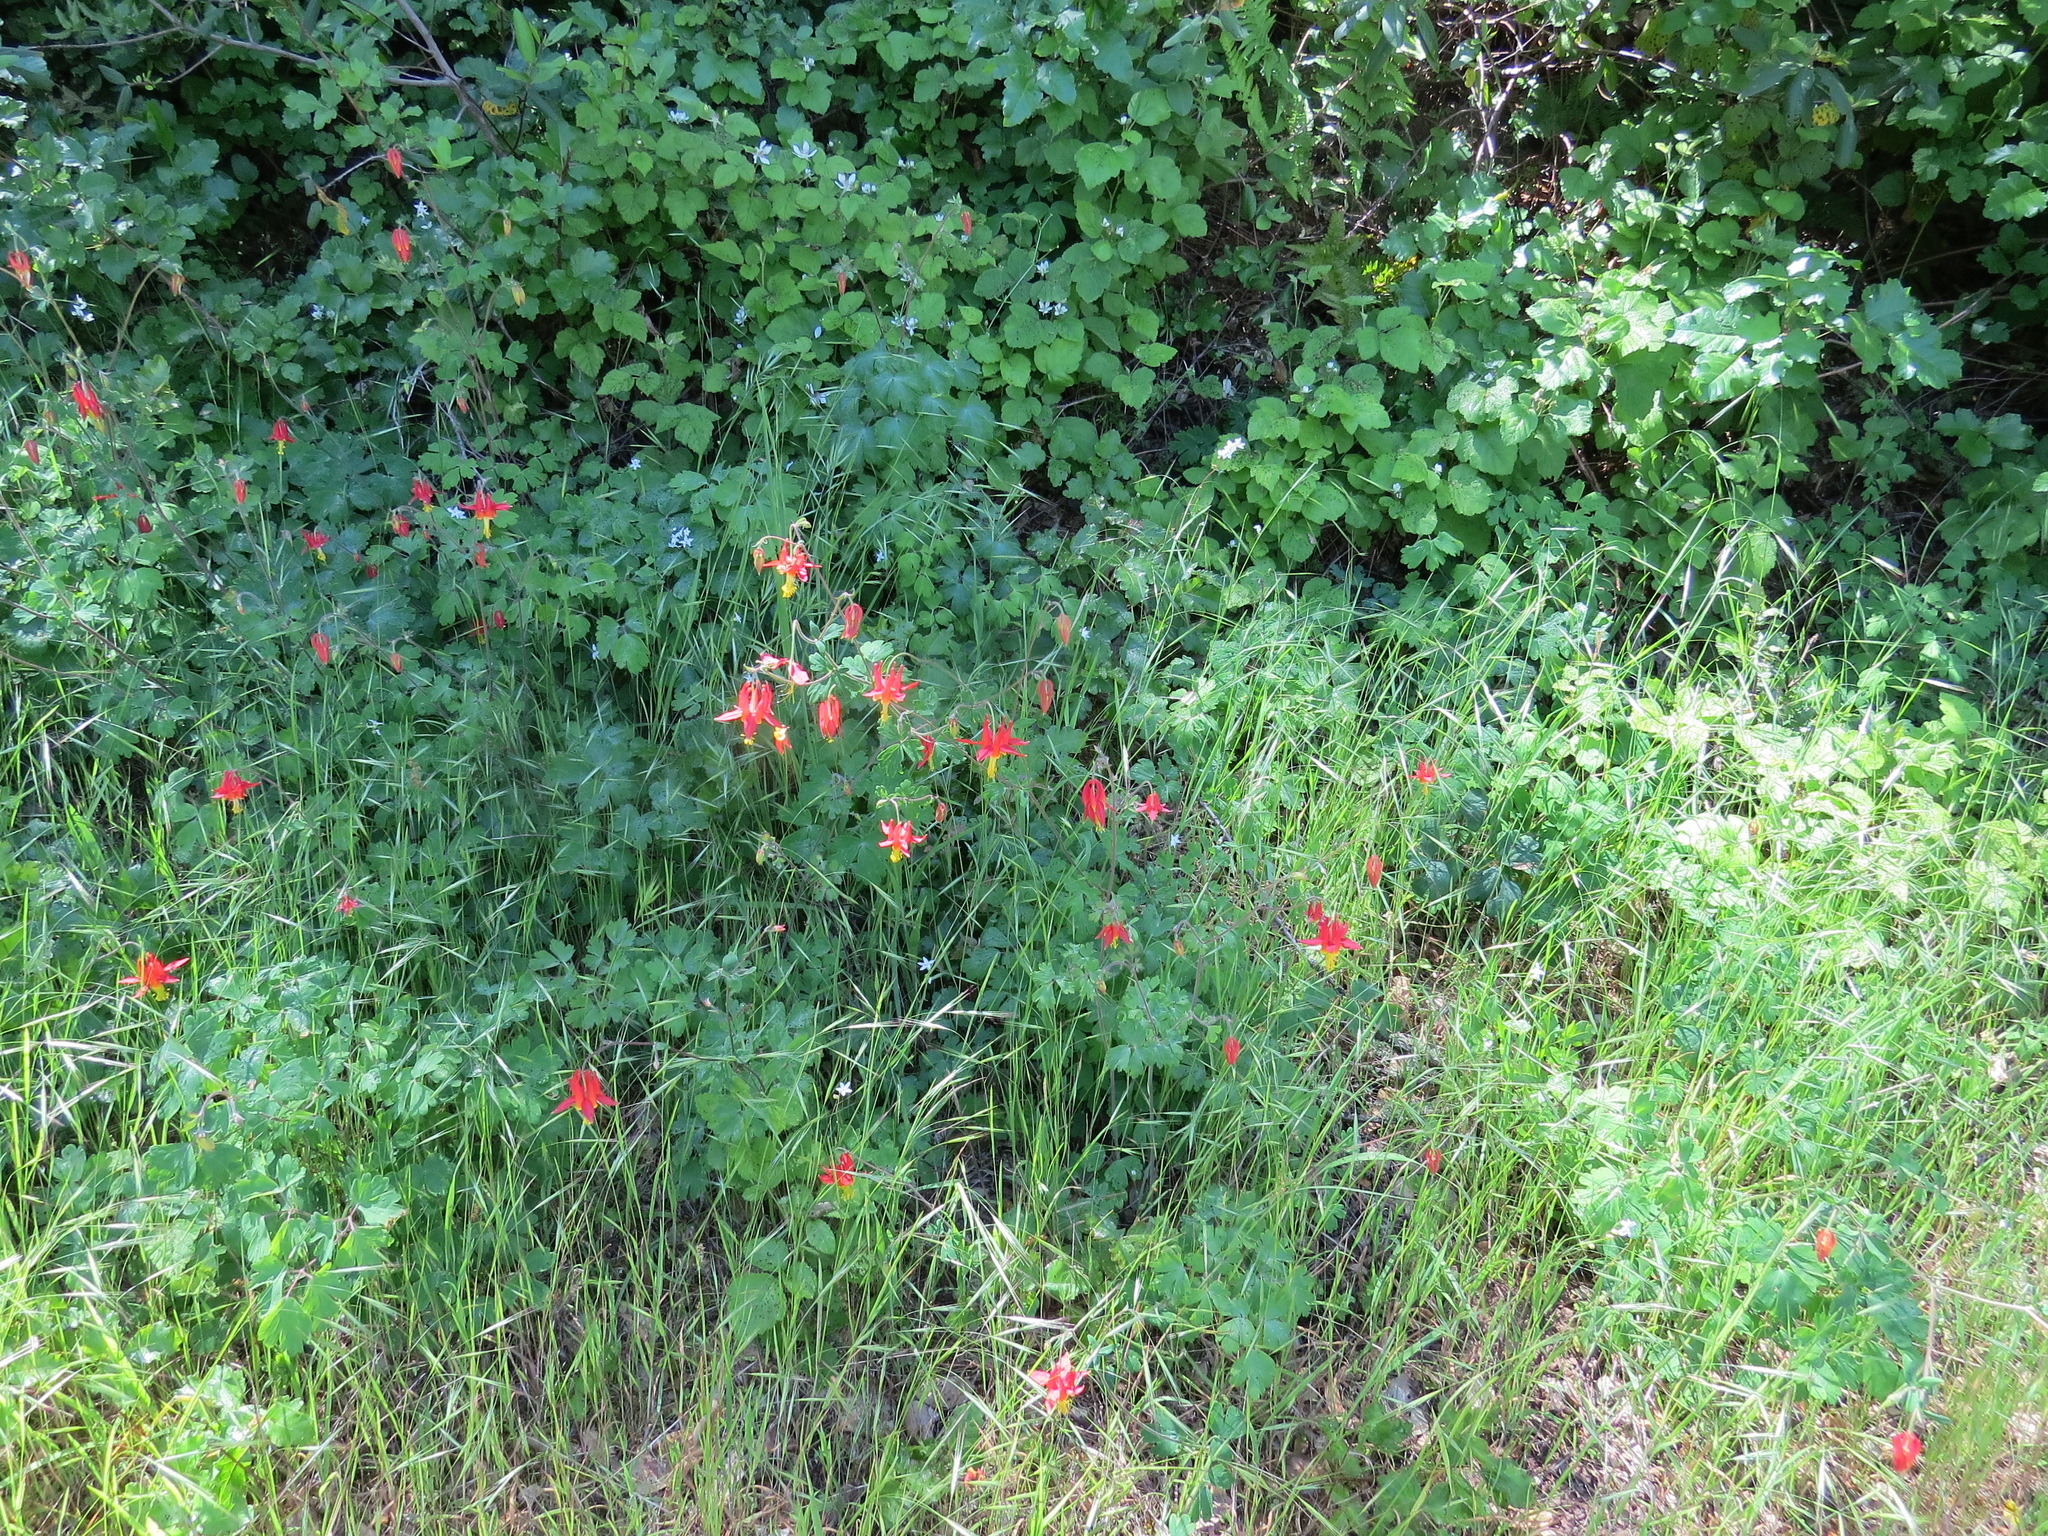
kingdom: Plantae
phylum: Tracheophyta
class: Magnoliopsida
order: Ranunculales
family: Ranunculaceae
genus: Aquilegia
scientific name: Aquilegia formosa
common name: Sitka columbine
